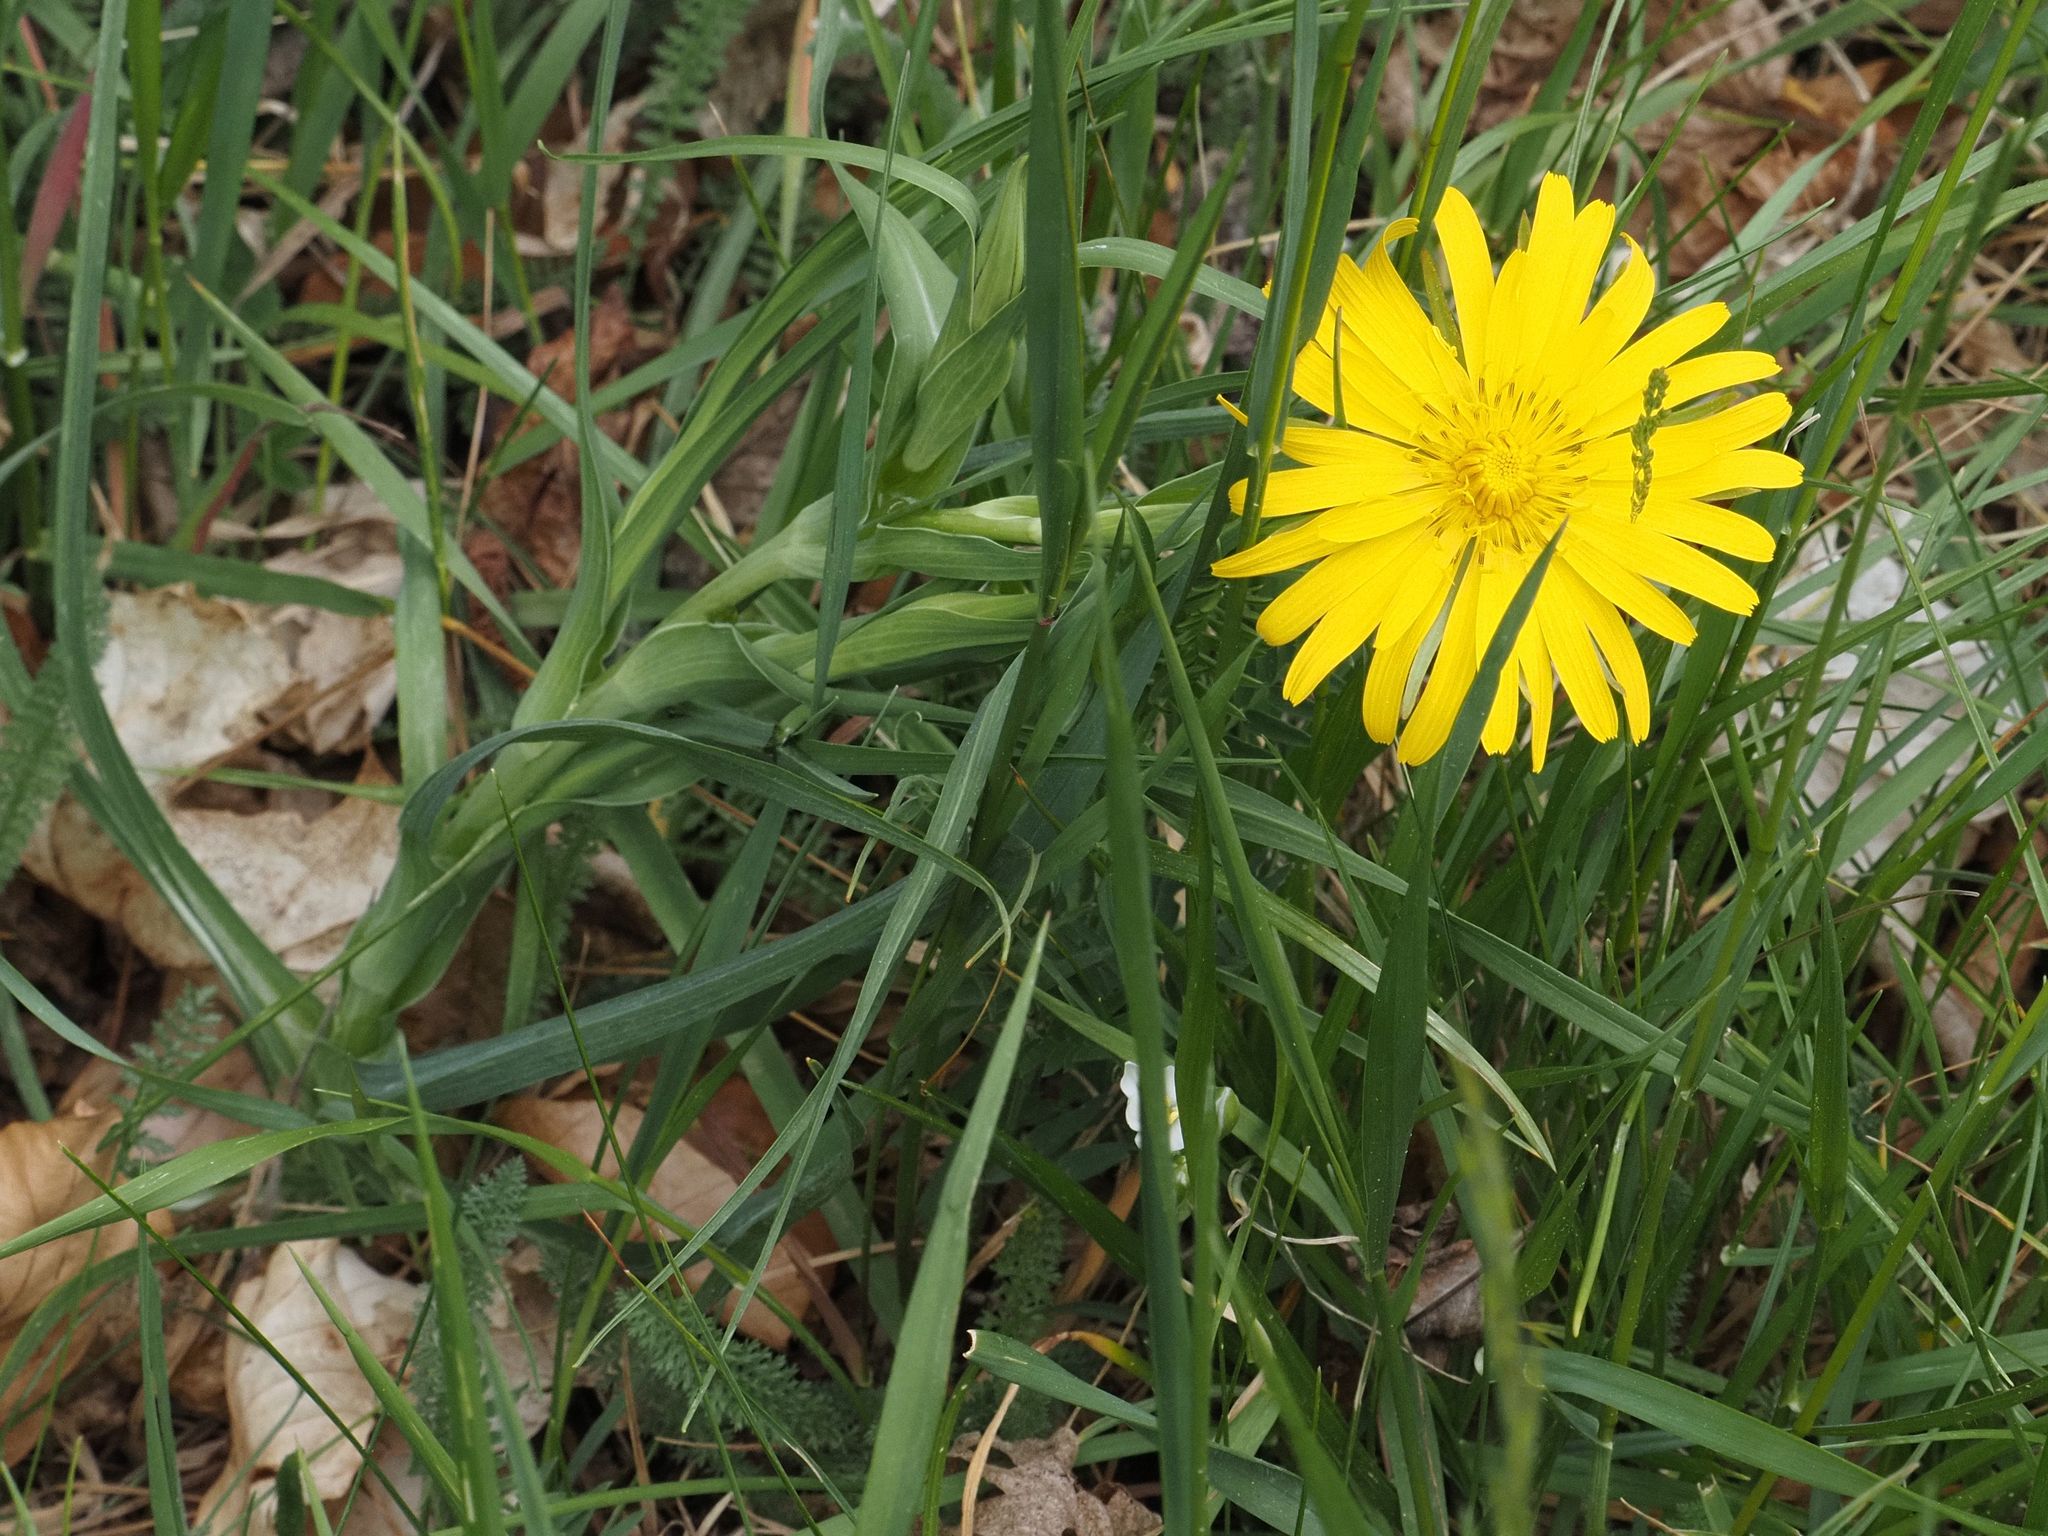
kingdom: Plantae
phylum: Tracheophyta
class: Magnoliopsida
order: Asterales
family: Asteraceae
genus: Tragopogon
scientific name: Tragopogon orientalis
